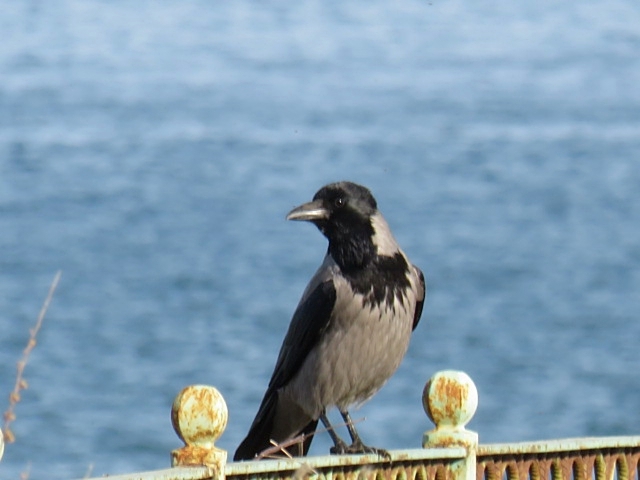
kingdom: Animalia
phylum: Chordata
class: Aves
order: Passeriformes
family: Corvidae
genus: Corvus
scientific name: Corvus cornix
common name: Hooded crow
